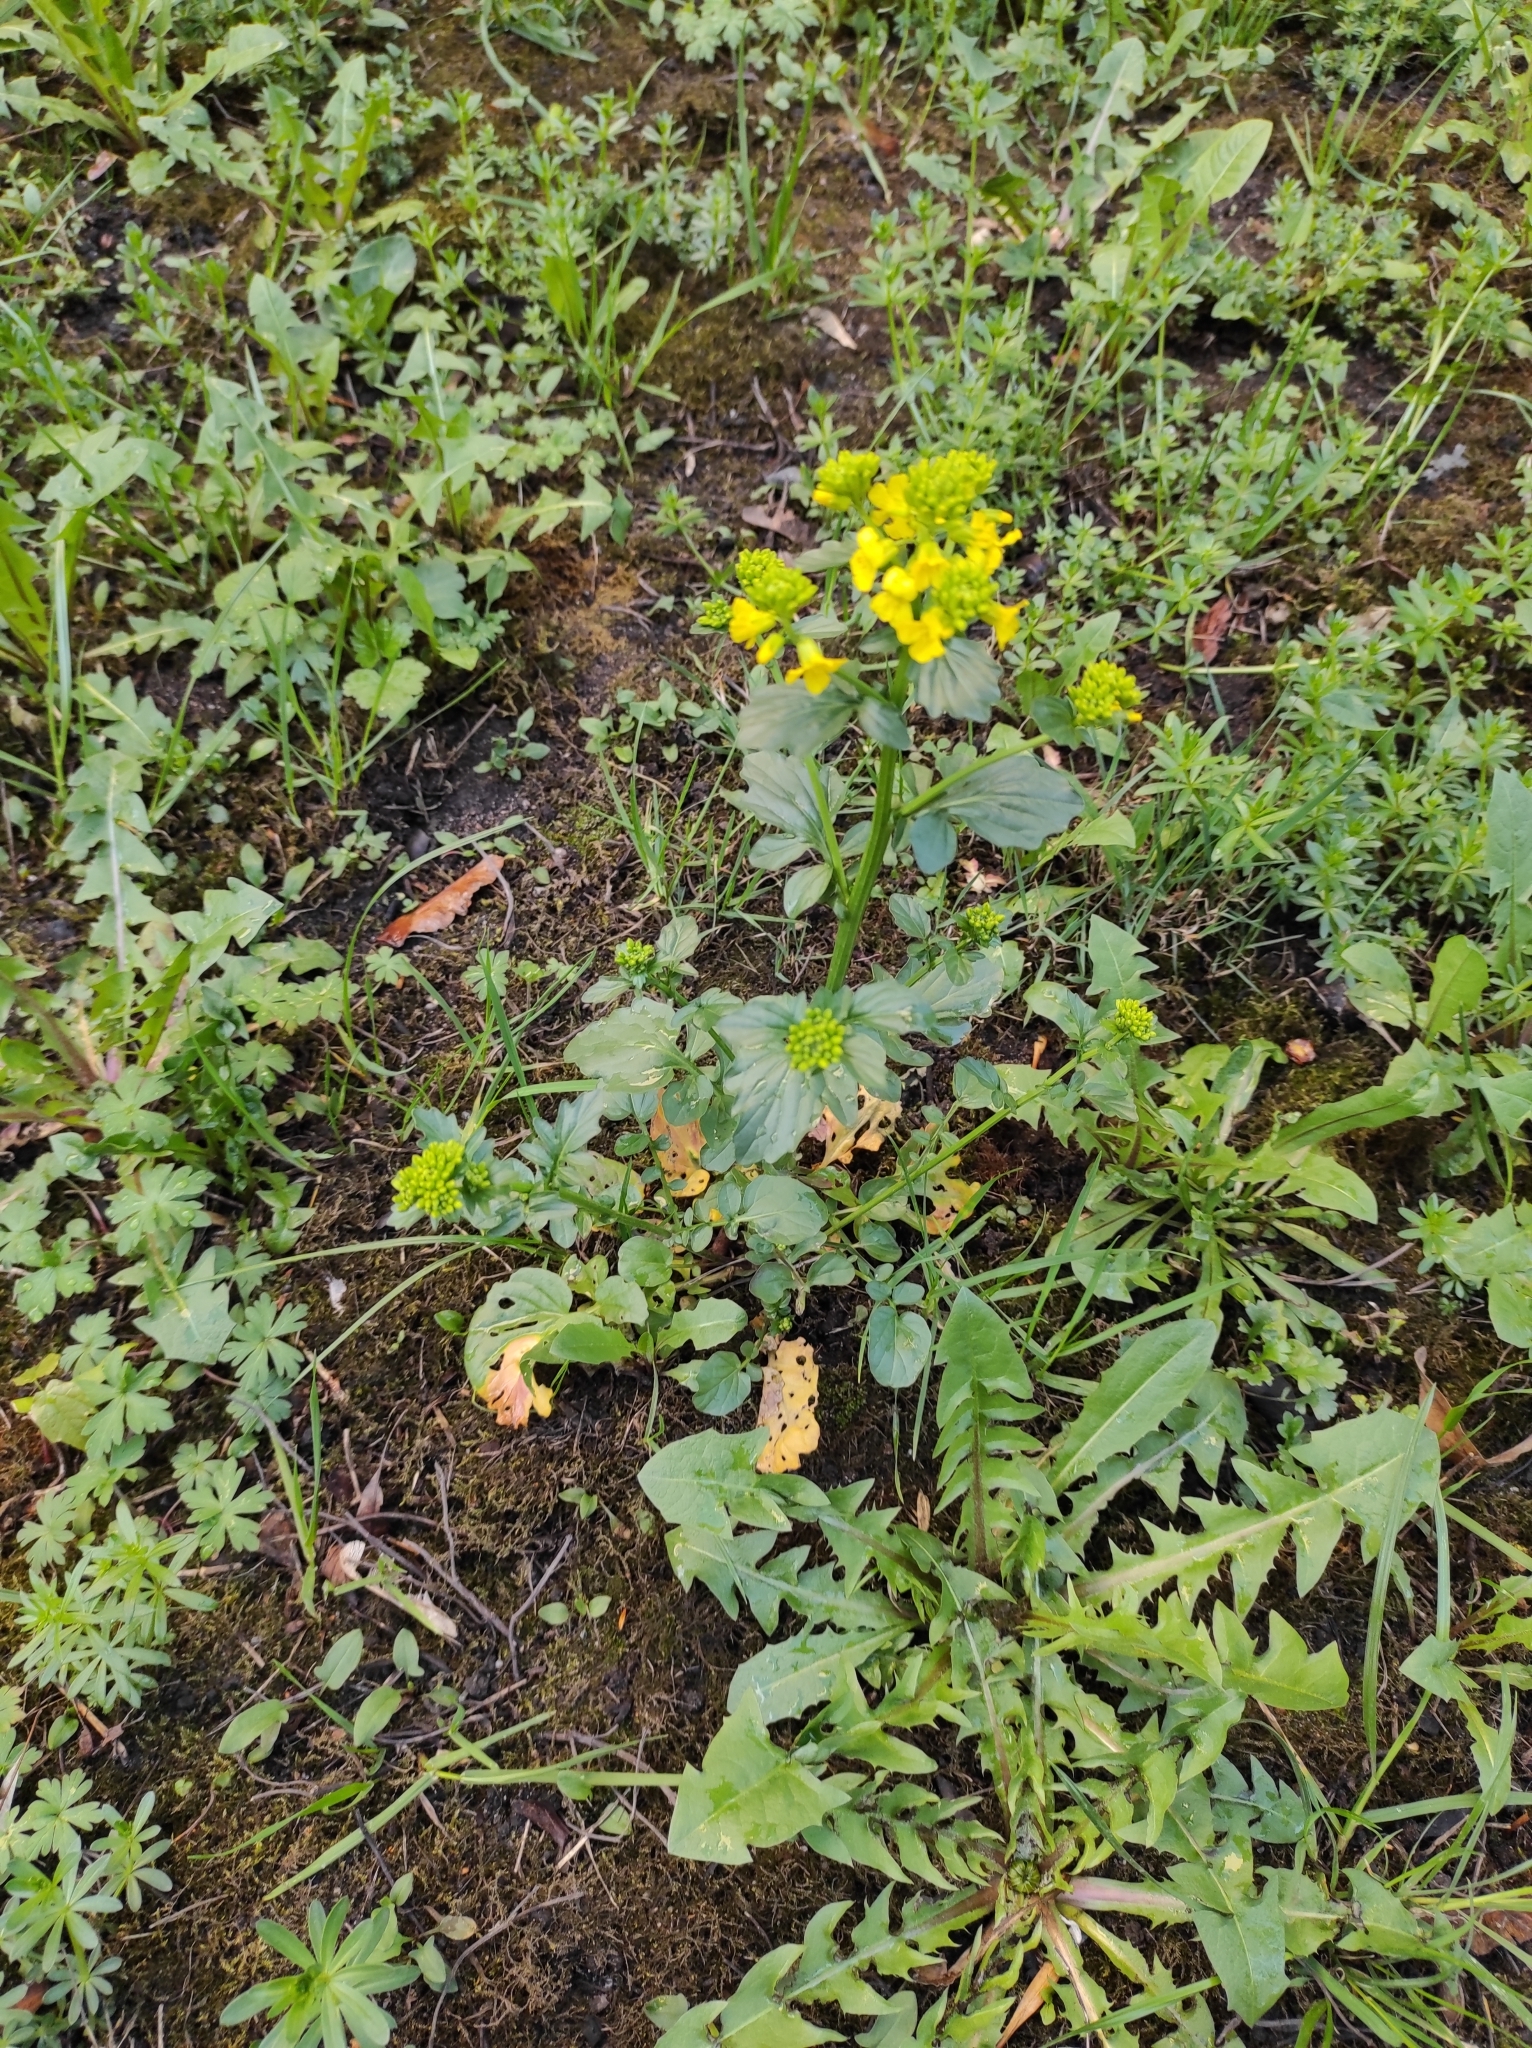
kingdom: Plantae
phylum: Tracheophyta
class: Magnoliopsida
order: Brassicales
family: Brassicaceae
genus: Barbarea
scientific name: Barbarea vulgaris
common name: Cressy-greens
